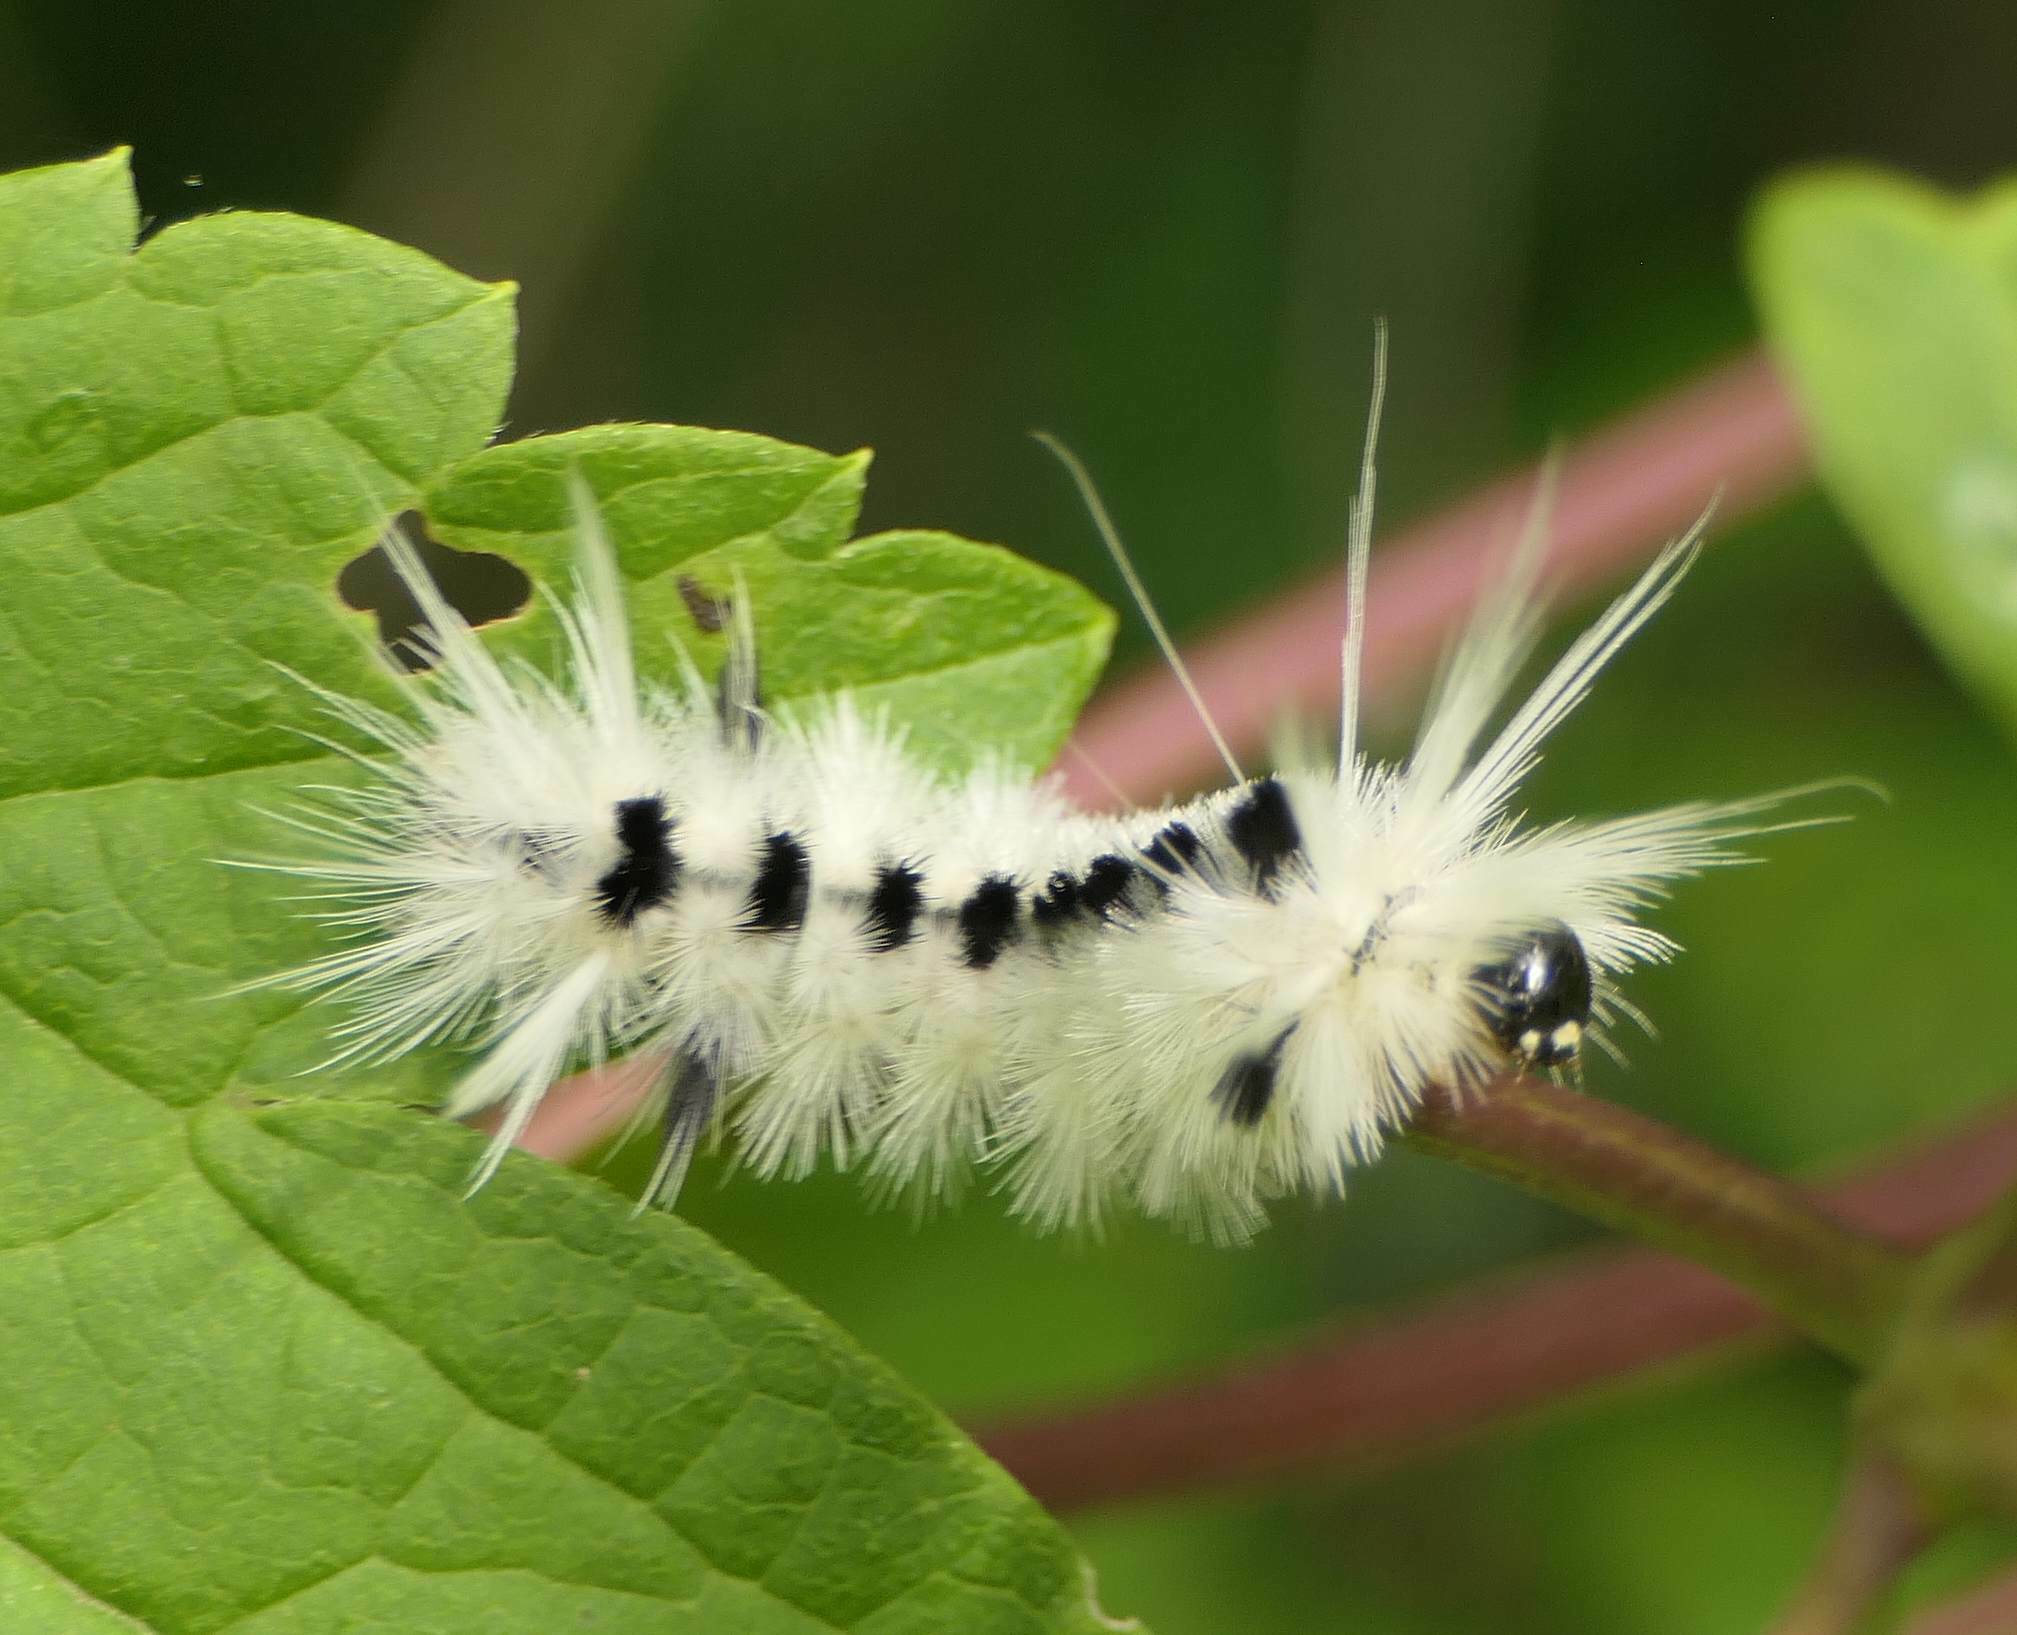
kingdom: Animalia
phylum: Arthropoda
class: Insecta
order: Lepidoptera
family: Erebidae
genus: Lophocampa
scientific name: Lophocampa caryae
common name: Hickory tussock moth
